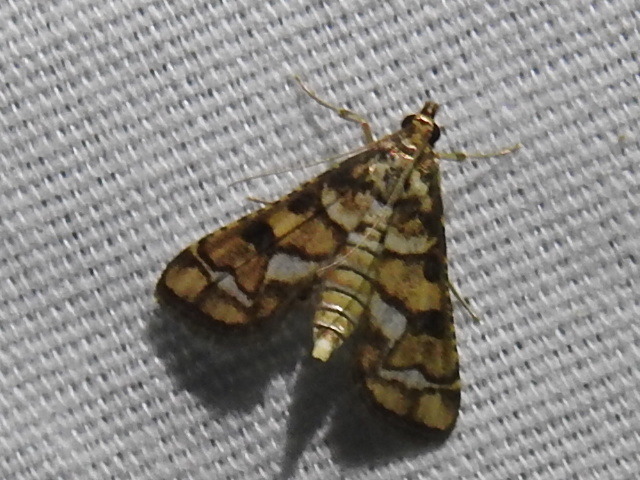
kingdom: Animalia
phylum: Arthropoda
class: Insecta
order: Lepidoptera
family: Crambidae
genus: Hileithia
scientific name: Hileithia magualis
